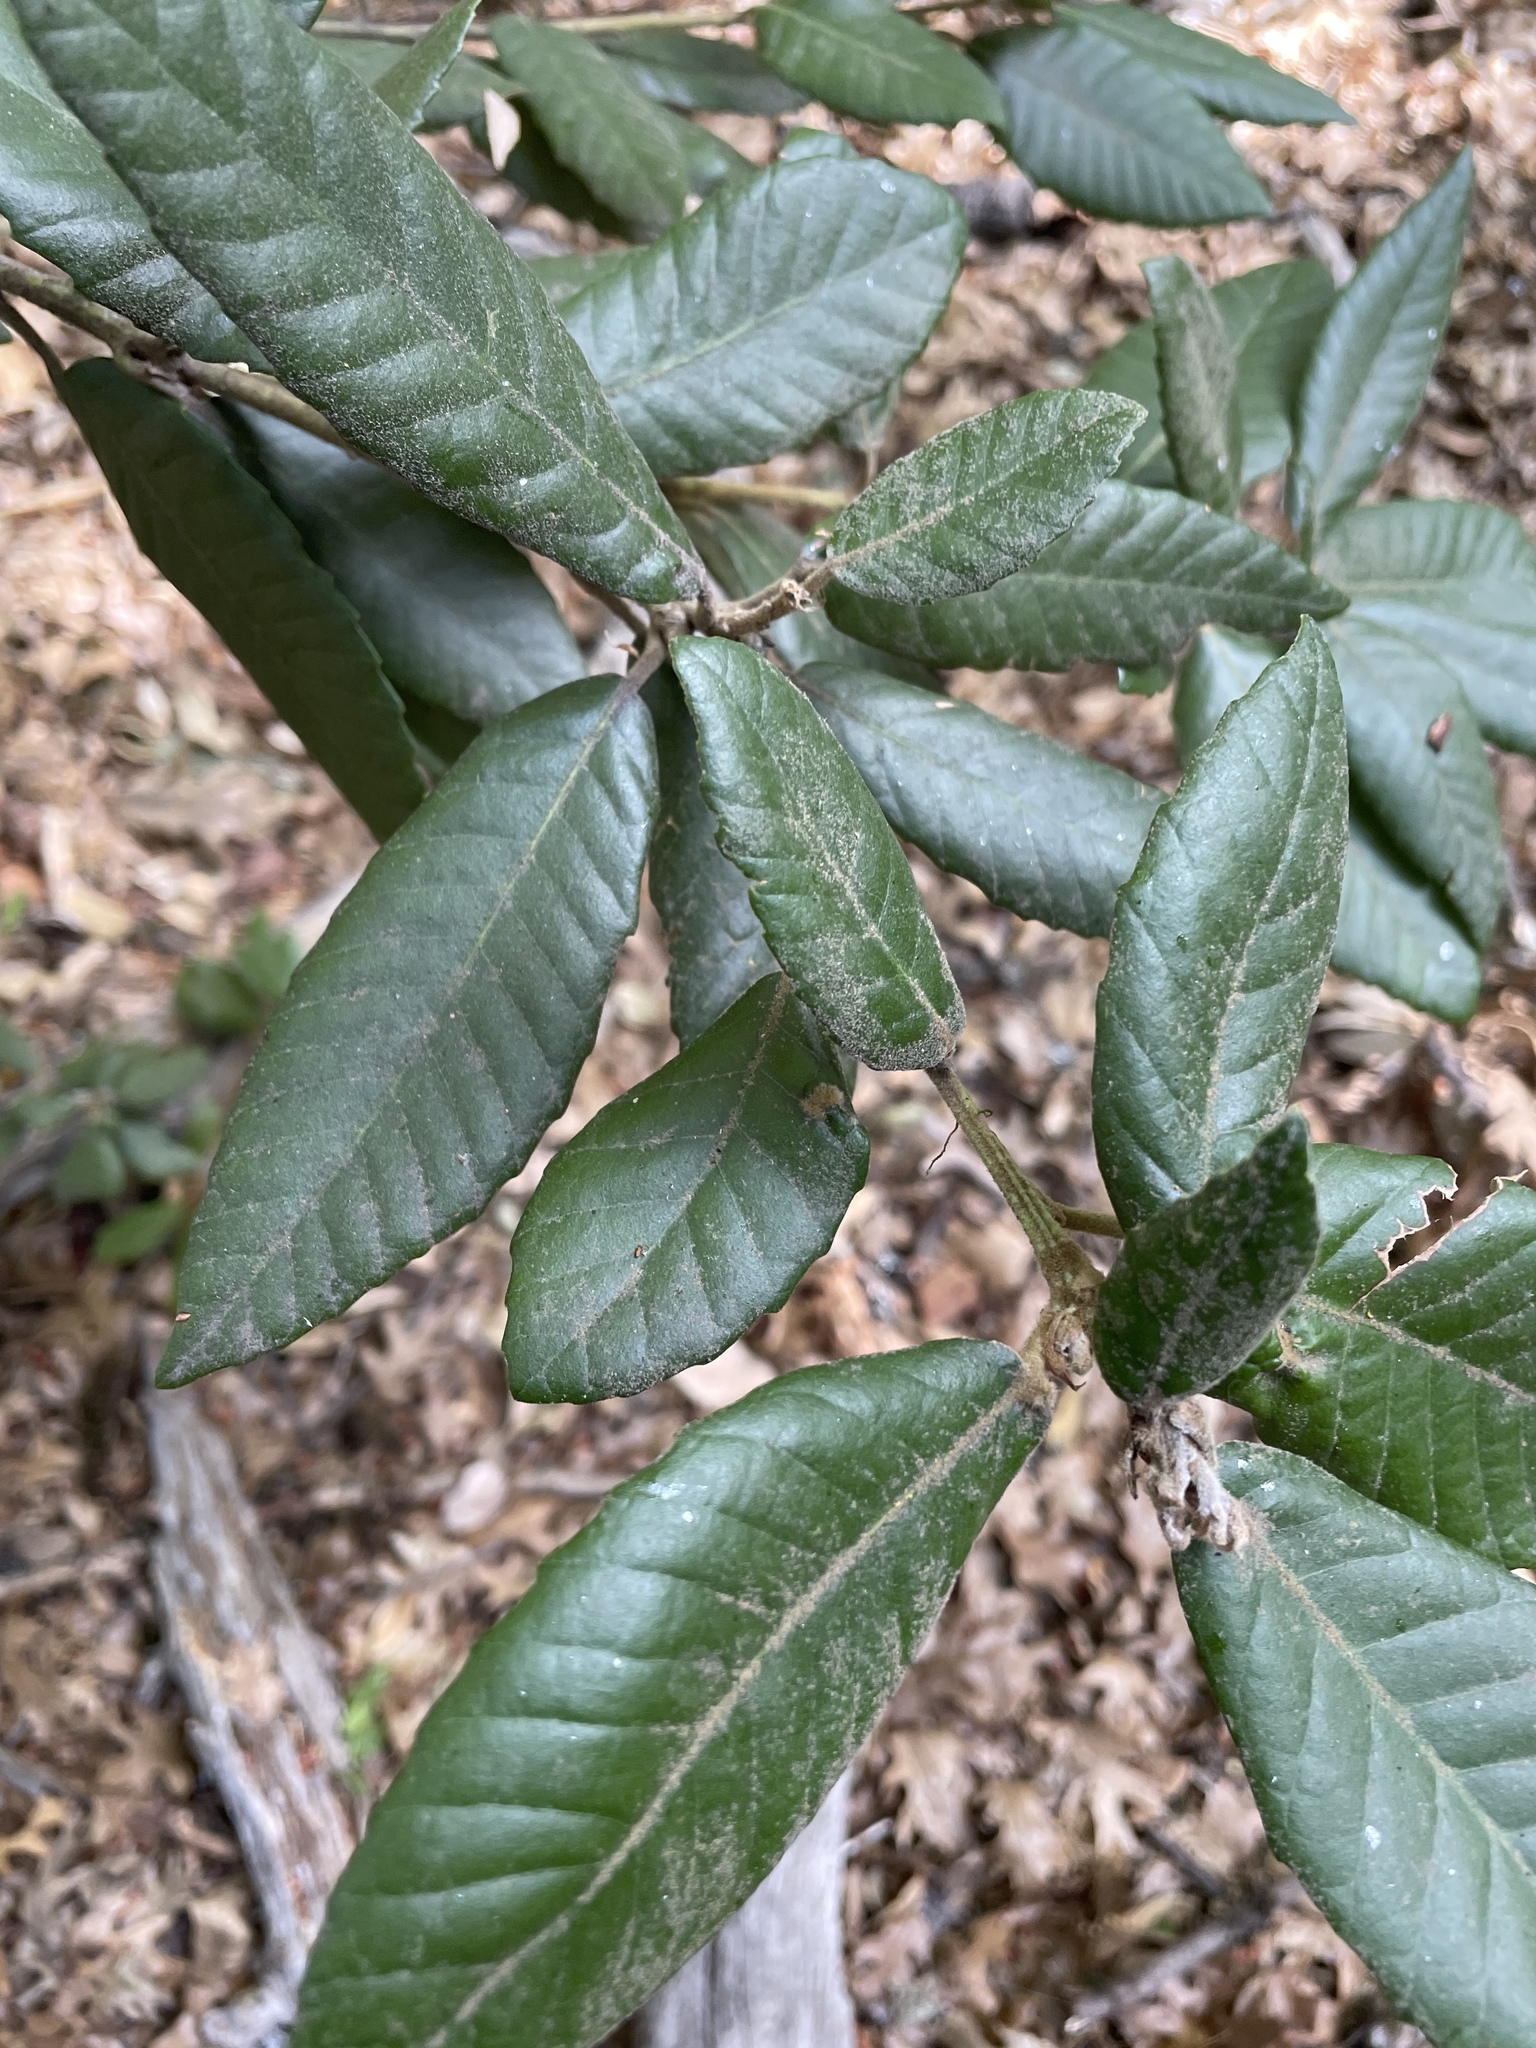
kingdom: Plantae
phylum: Tracheophyta
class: Magnoliopsida
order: Fagales
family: Fagaceae
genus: Notholithocarpus
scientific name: Notholithocarpus densiflorus
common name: Tan bark oak
